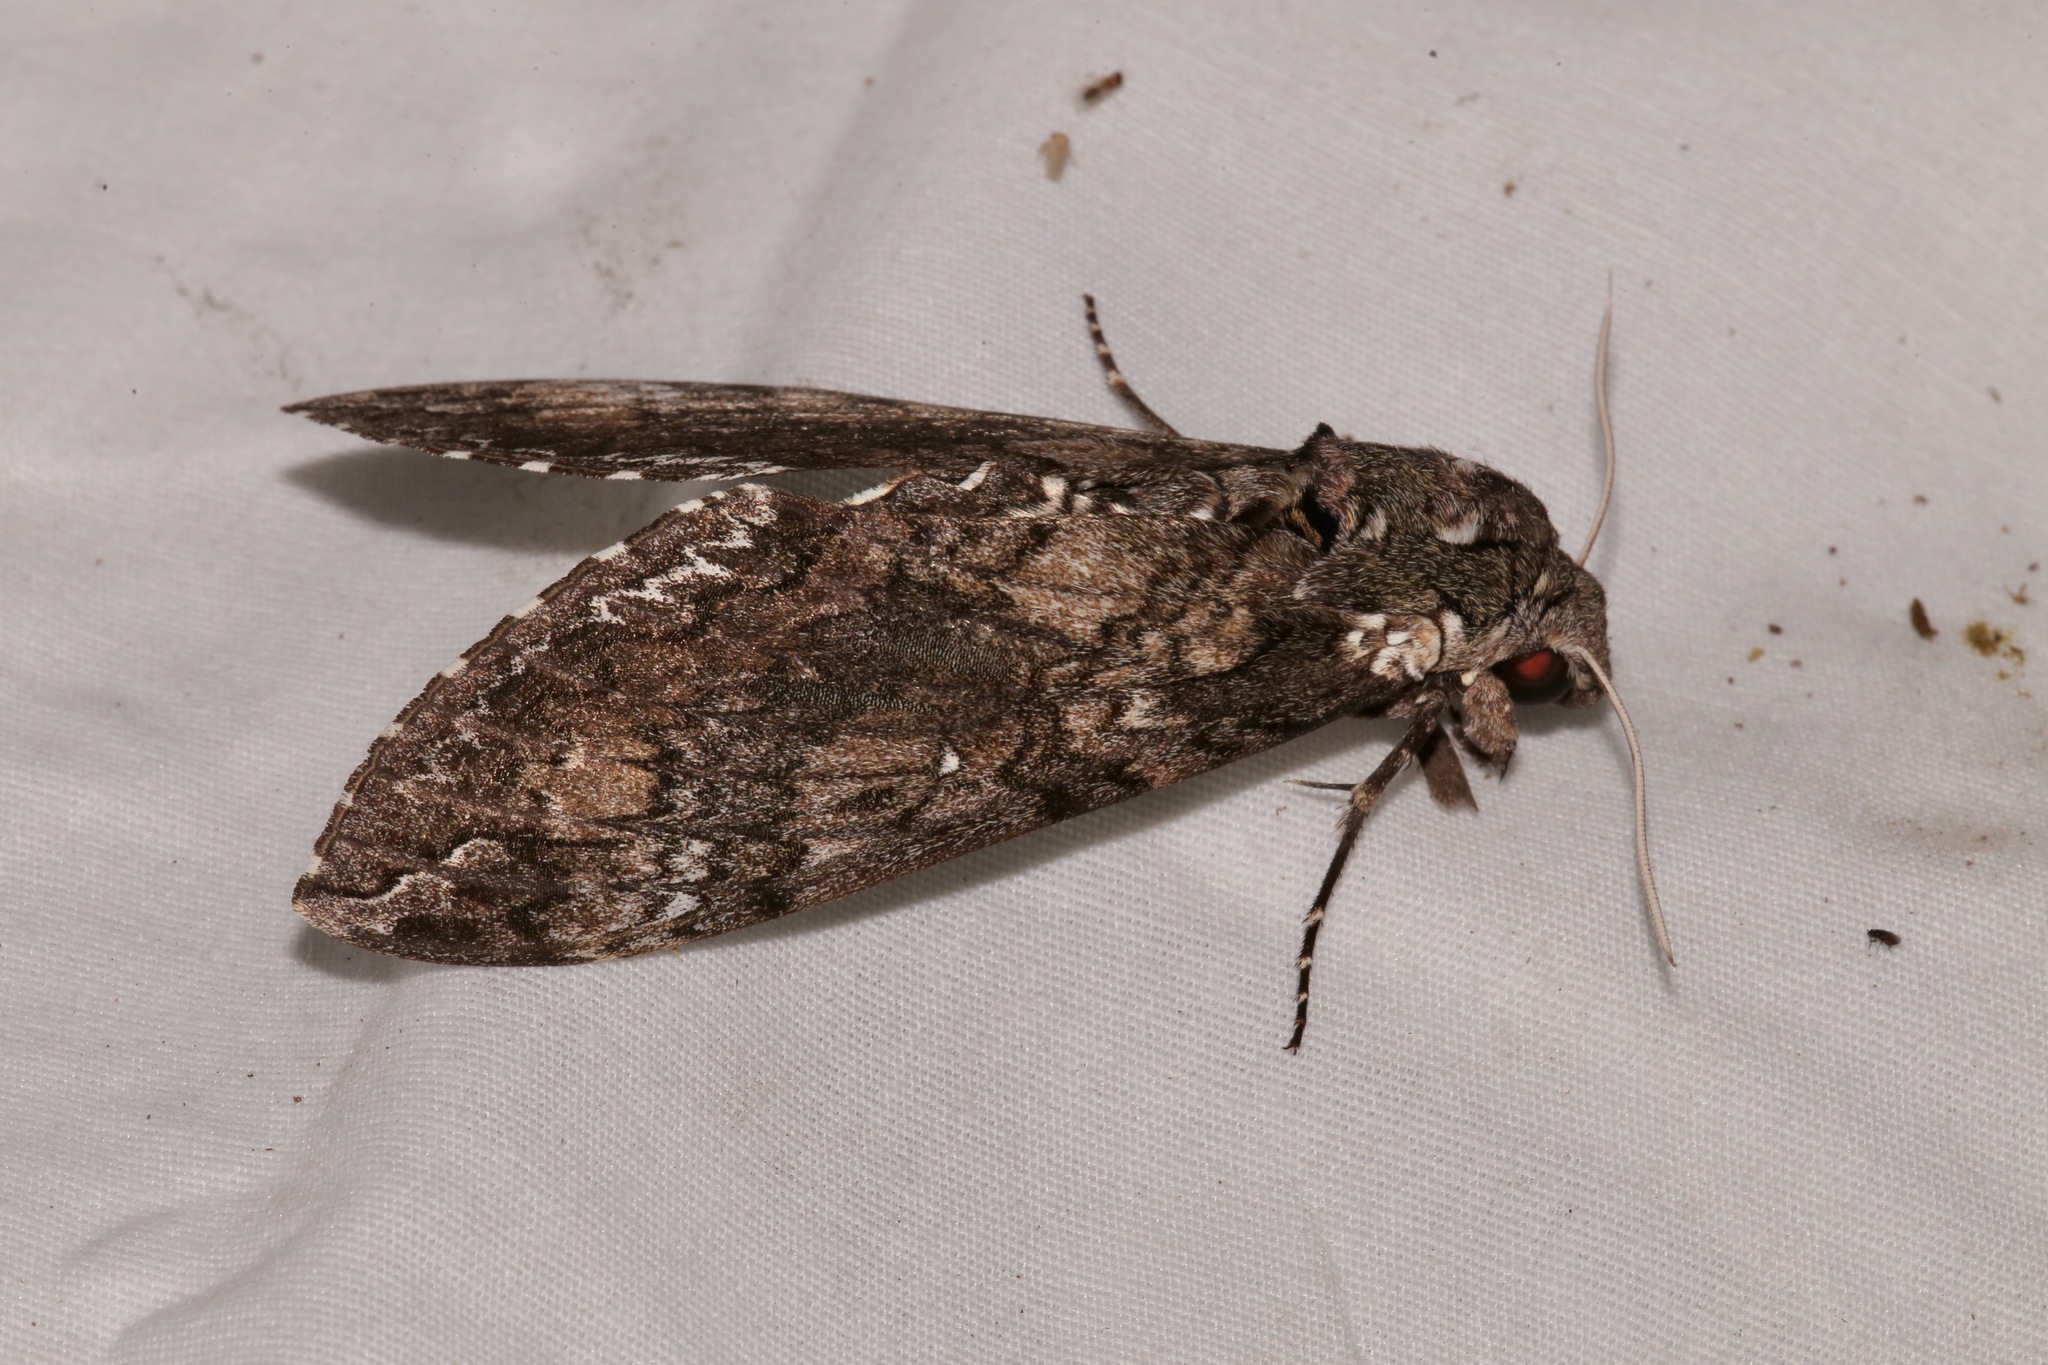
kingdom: Animalia
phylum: Arthropoda
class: Insecta
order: Lepidoptera
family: Sphingidae
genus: Manduca
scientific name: Manduca sexta
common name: Carolina sphinx
